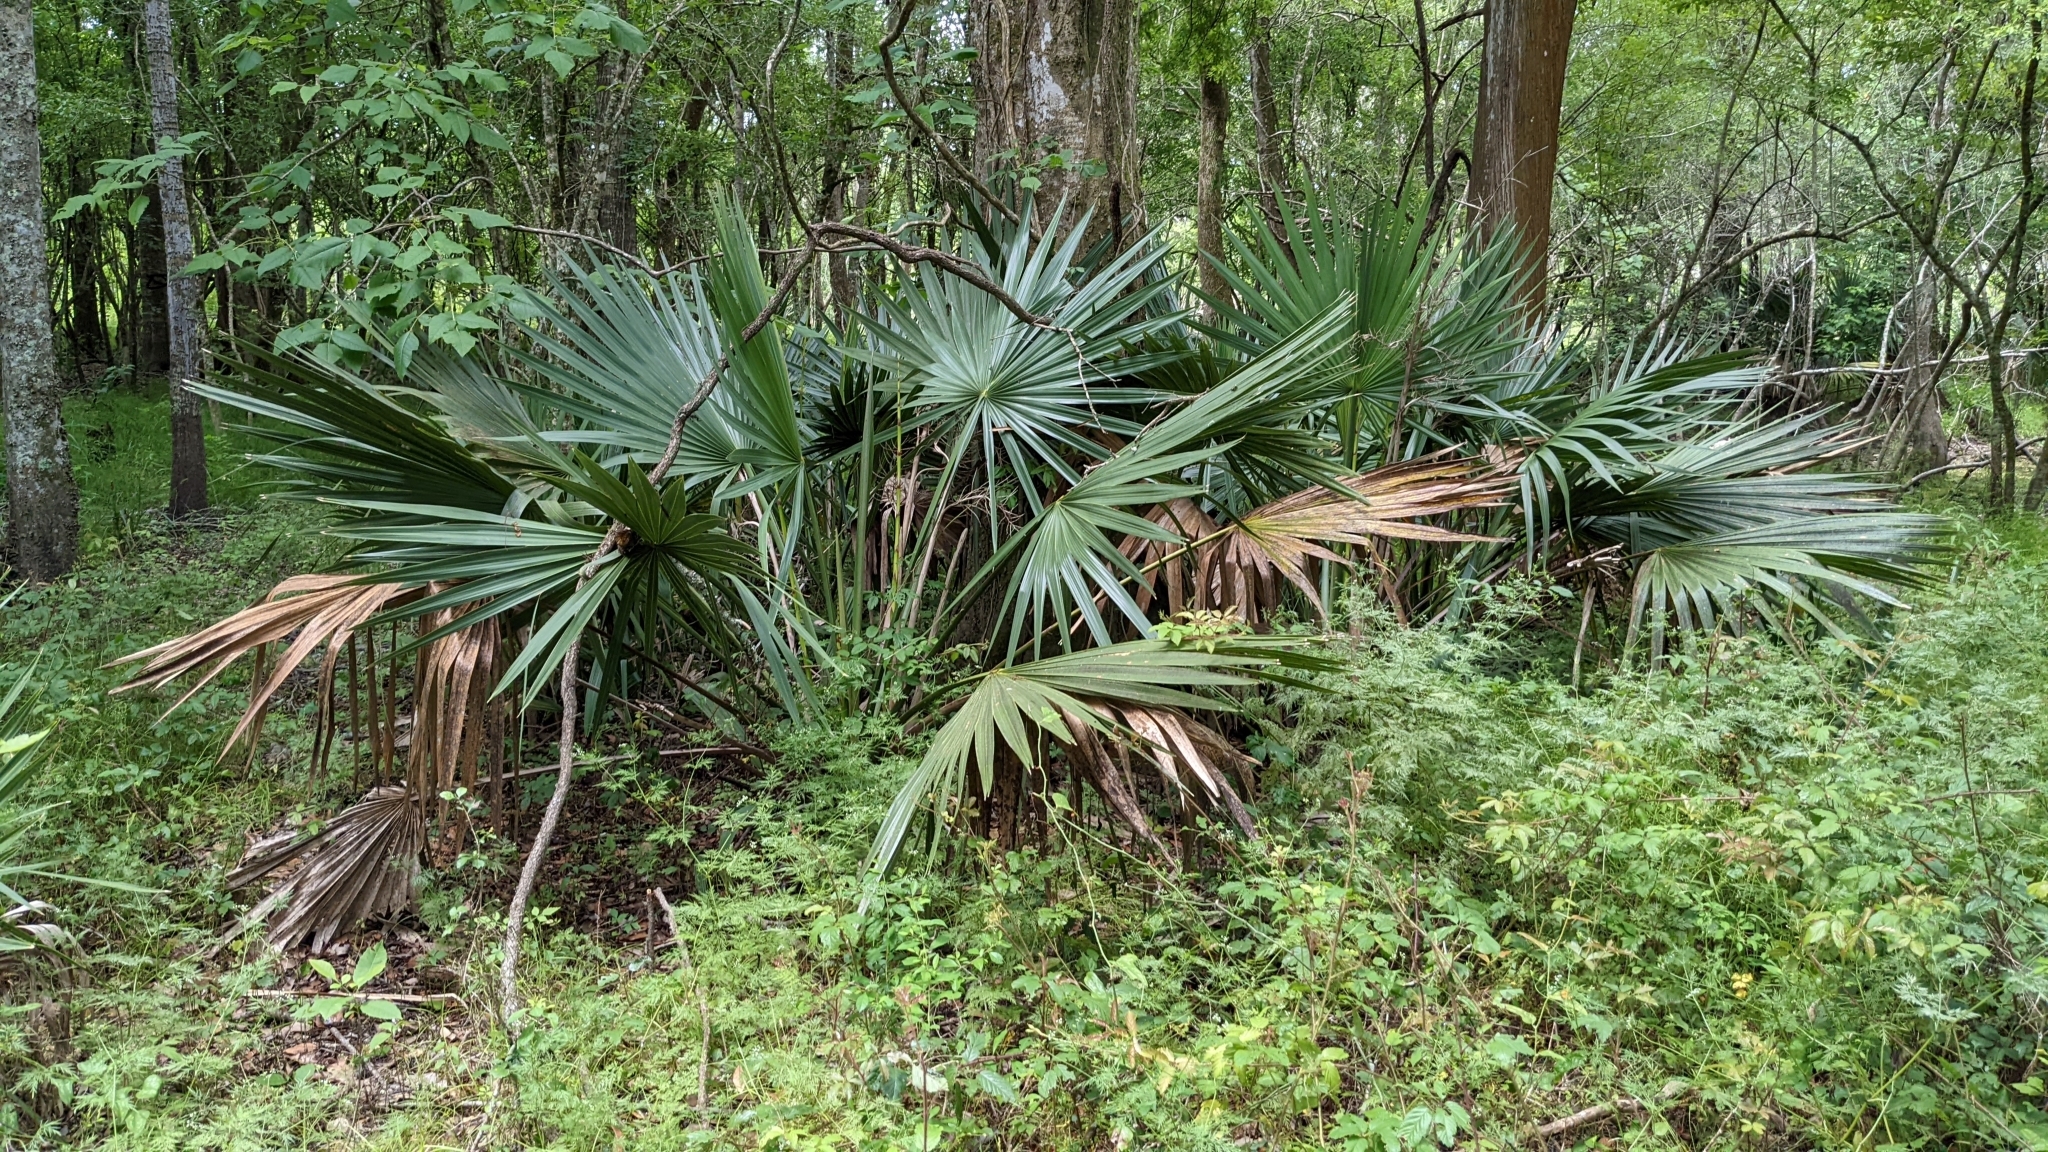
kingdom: Plantae
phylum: Tracheophyta
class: Liliopsida
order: Arecales
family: Arecaceae
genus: Sabal
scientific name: Sabal minor
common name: Dwarf palmetto
